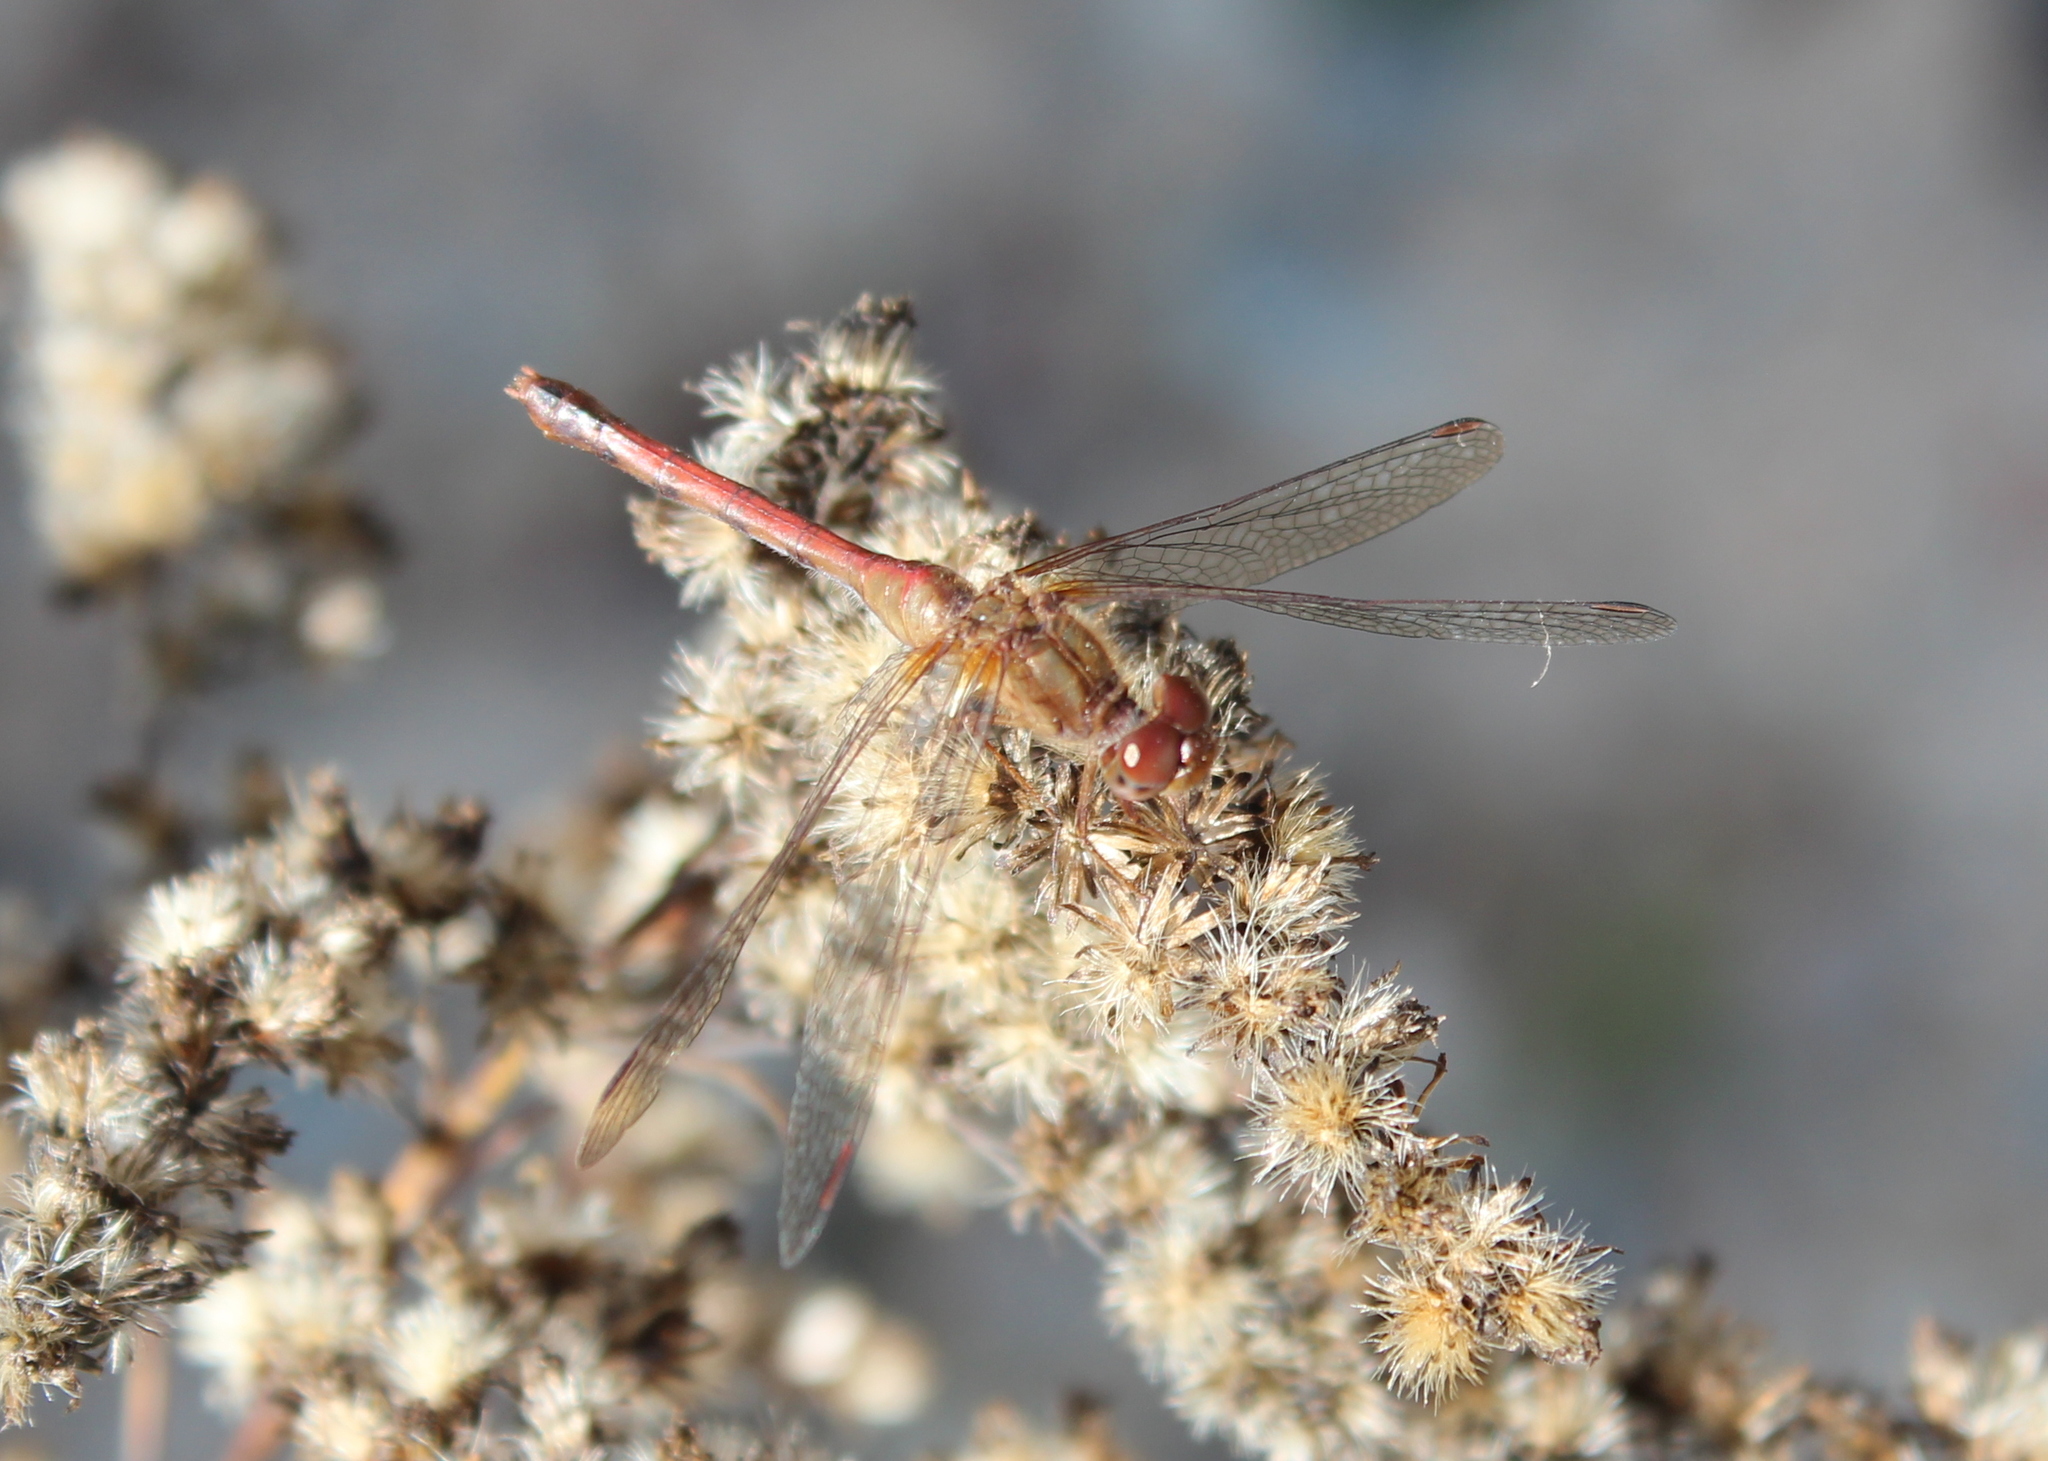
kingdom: Animalia
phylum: Arthropoda
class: Insecta
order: Odonata
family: Libellulidae
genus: Sympetrum
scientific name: Sympetrum vicinum
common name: Autumn meadowhawk
